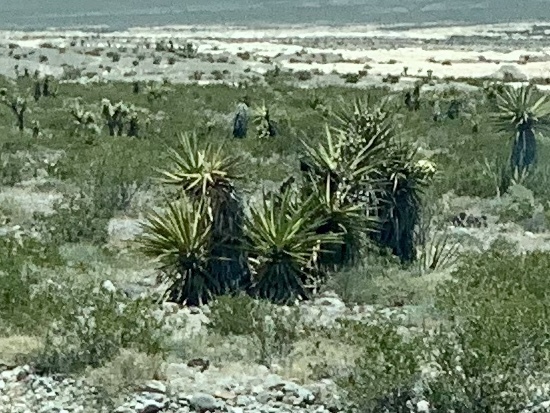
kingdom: Plantae
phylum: Tracheophyta
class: Liliopsida
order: Asparagales
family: Asparagaceae
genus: Yucca
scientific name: Yucca schidigera
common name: Mojave yucca
